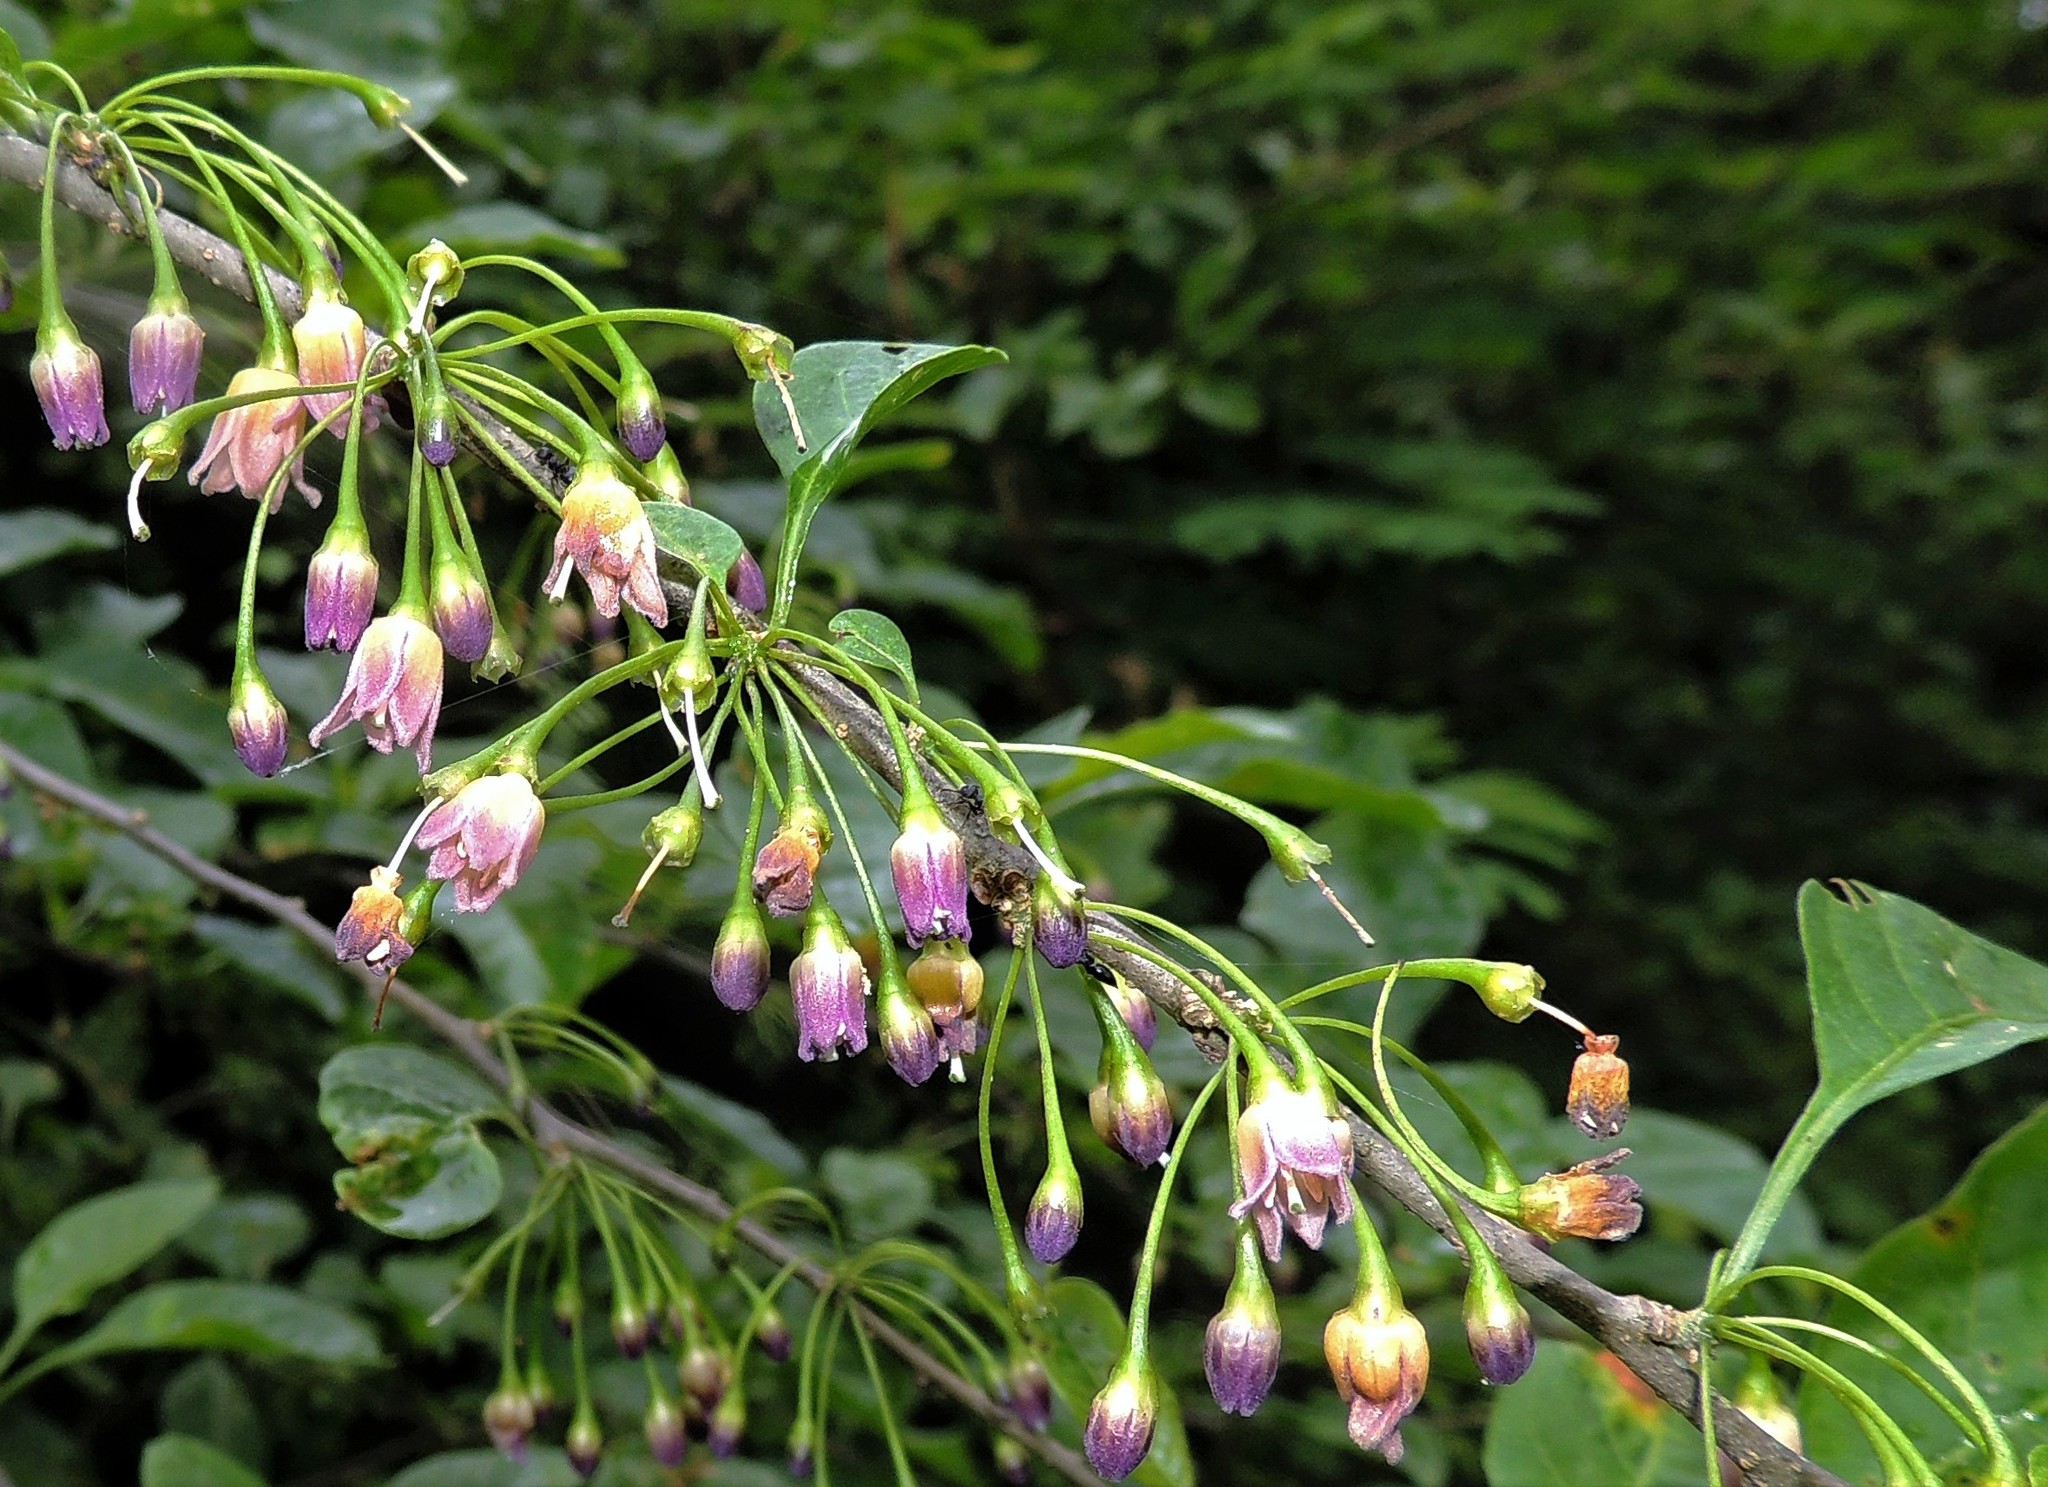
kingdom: Plantae
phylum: Tracheophyta
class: Magnoliopsida
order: Solanales
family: Solanaceae
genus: Vassobia
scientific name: Vassobia breviflora
